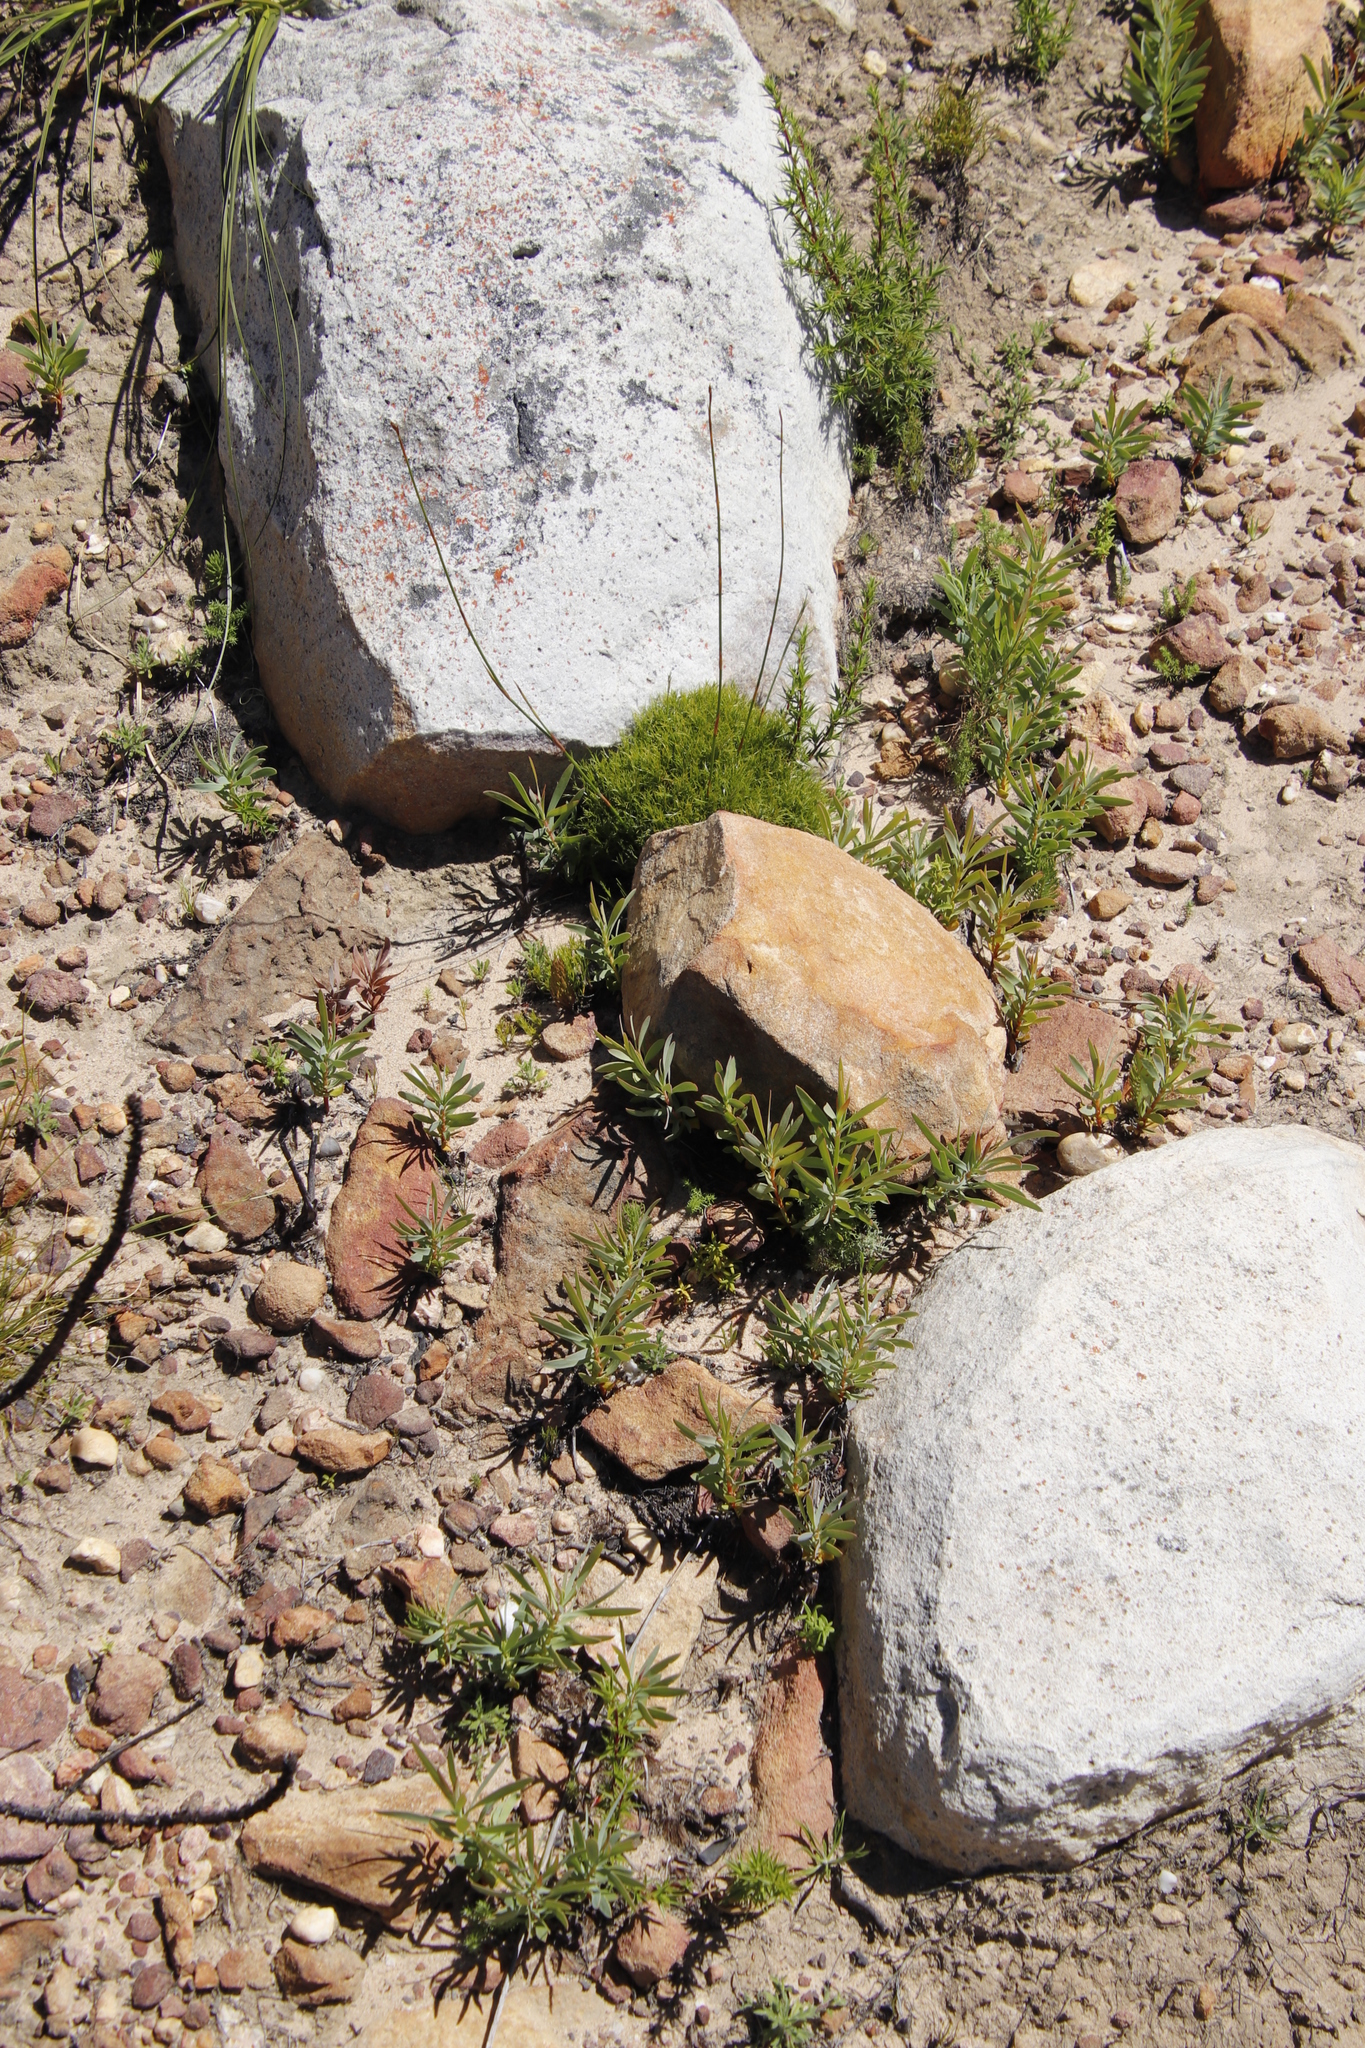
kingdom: Plantae
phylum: Tracheophyta
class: Magnoliopsida
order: Proteales
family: Proteaceae
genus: Protea
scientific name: Protea repens
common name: Sugarbush
